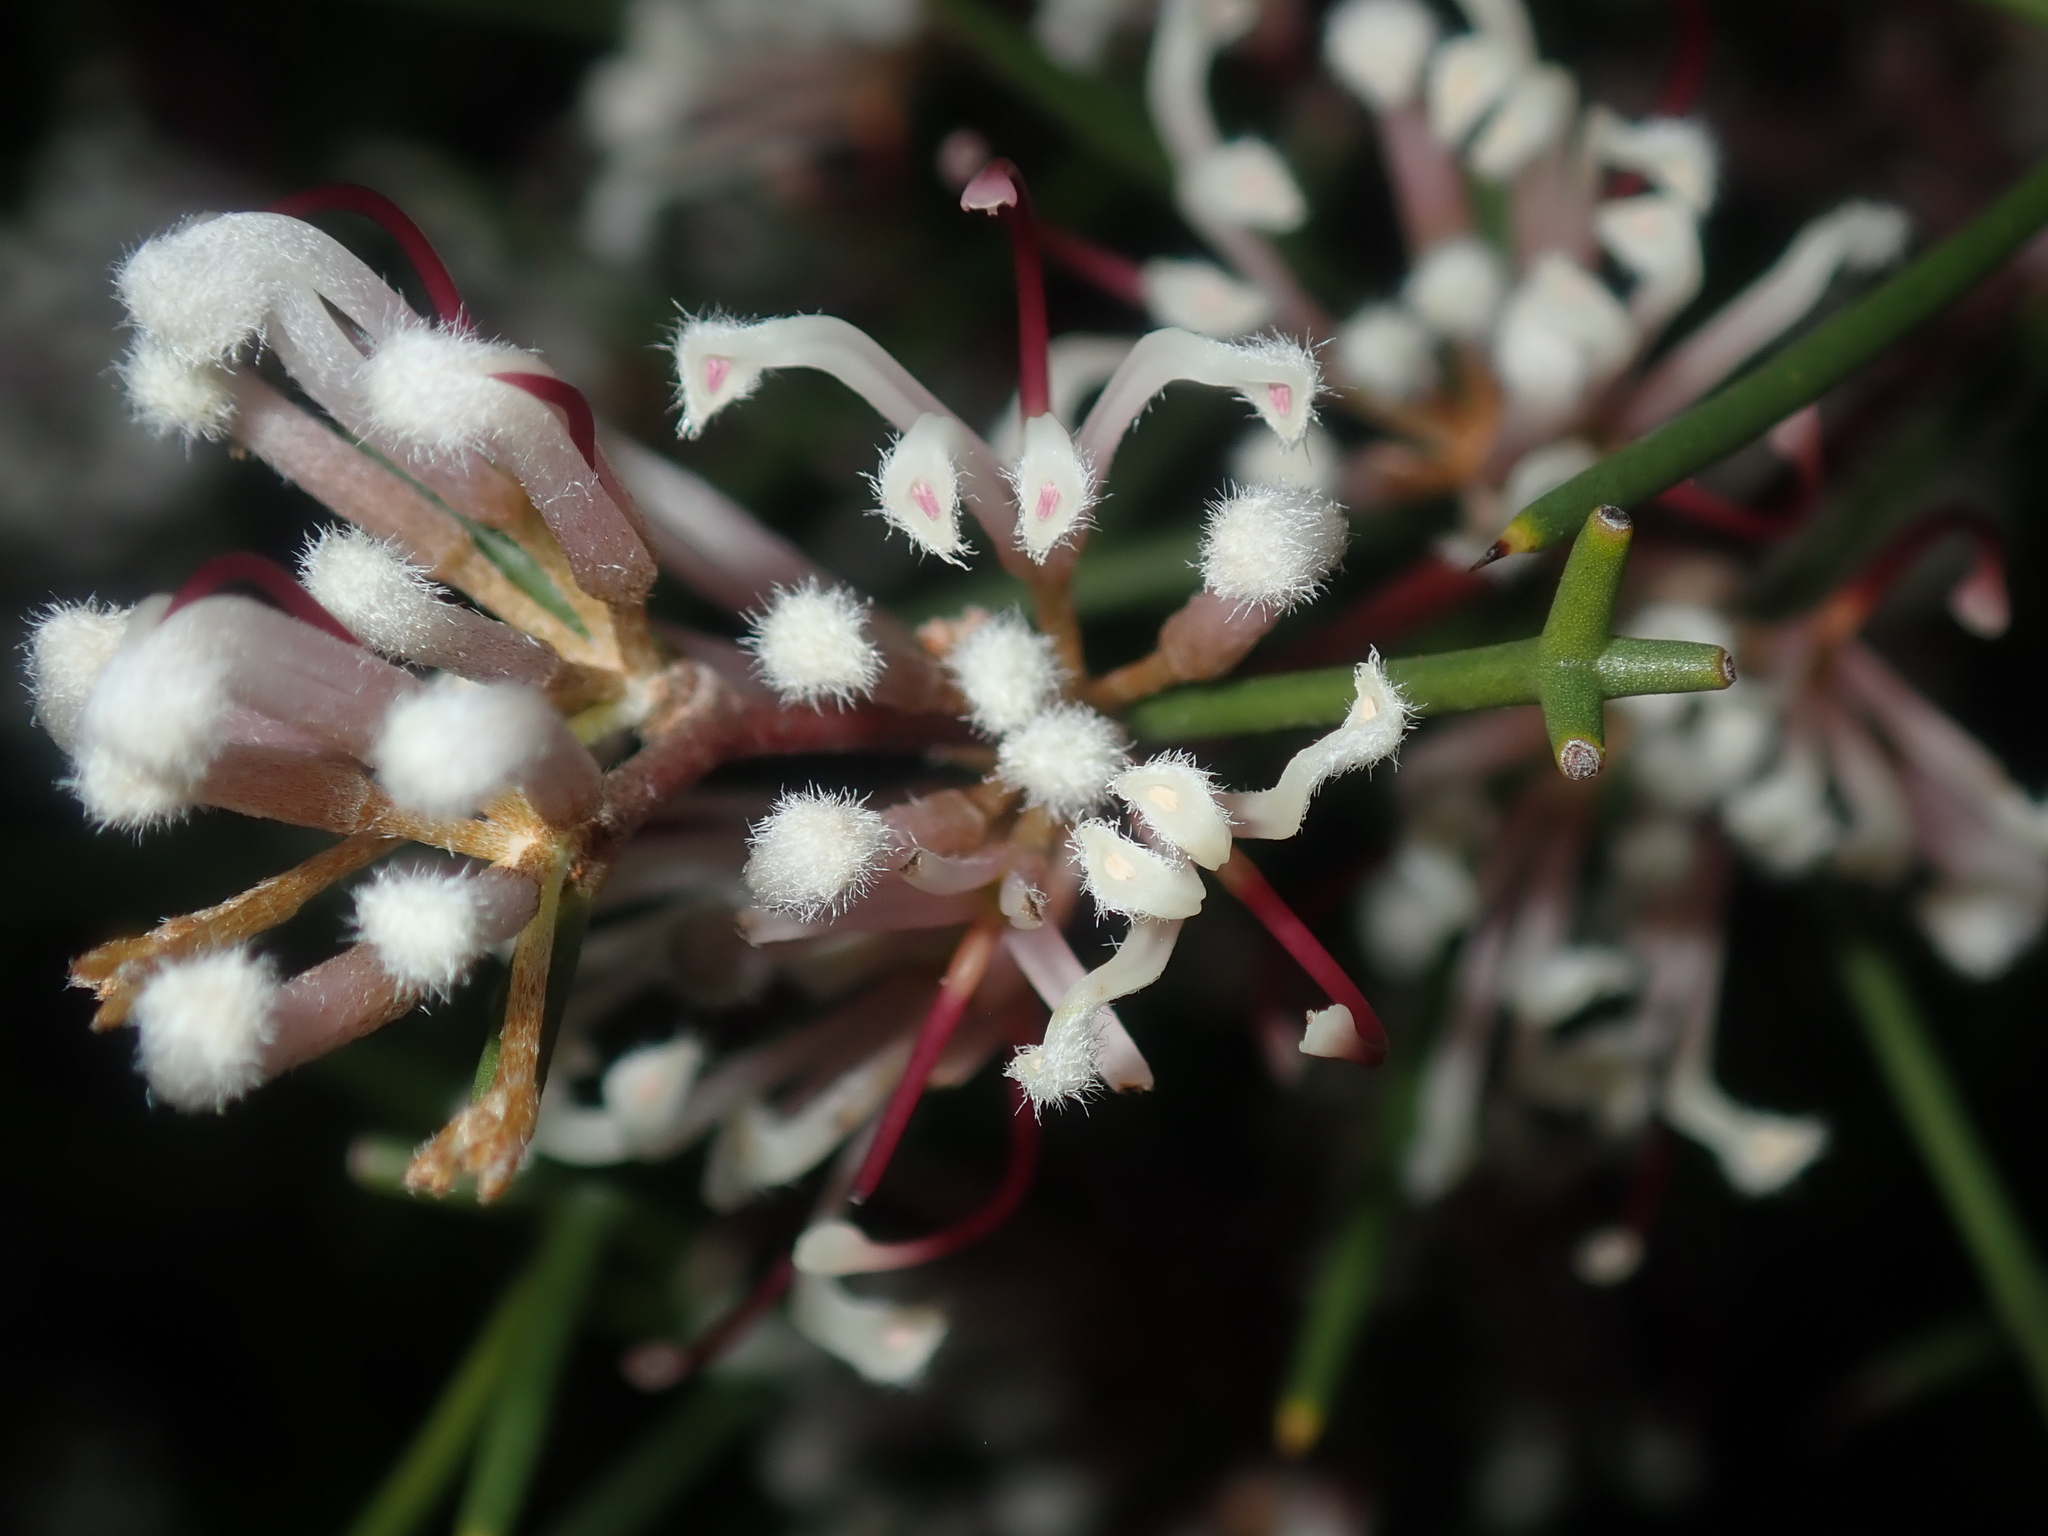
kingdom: Plantae
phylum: Tracheophyta
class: Magnoliopsida
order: Proteales
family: Proteaceae
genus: Hakea
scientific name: Hakea trifurcata
